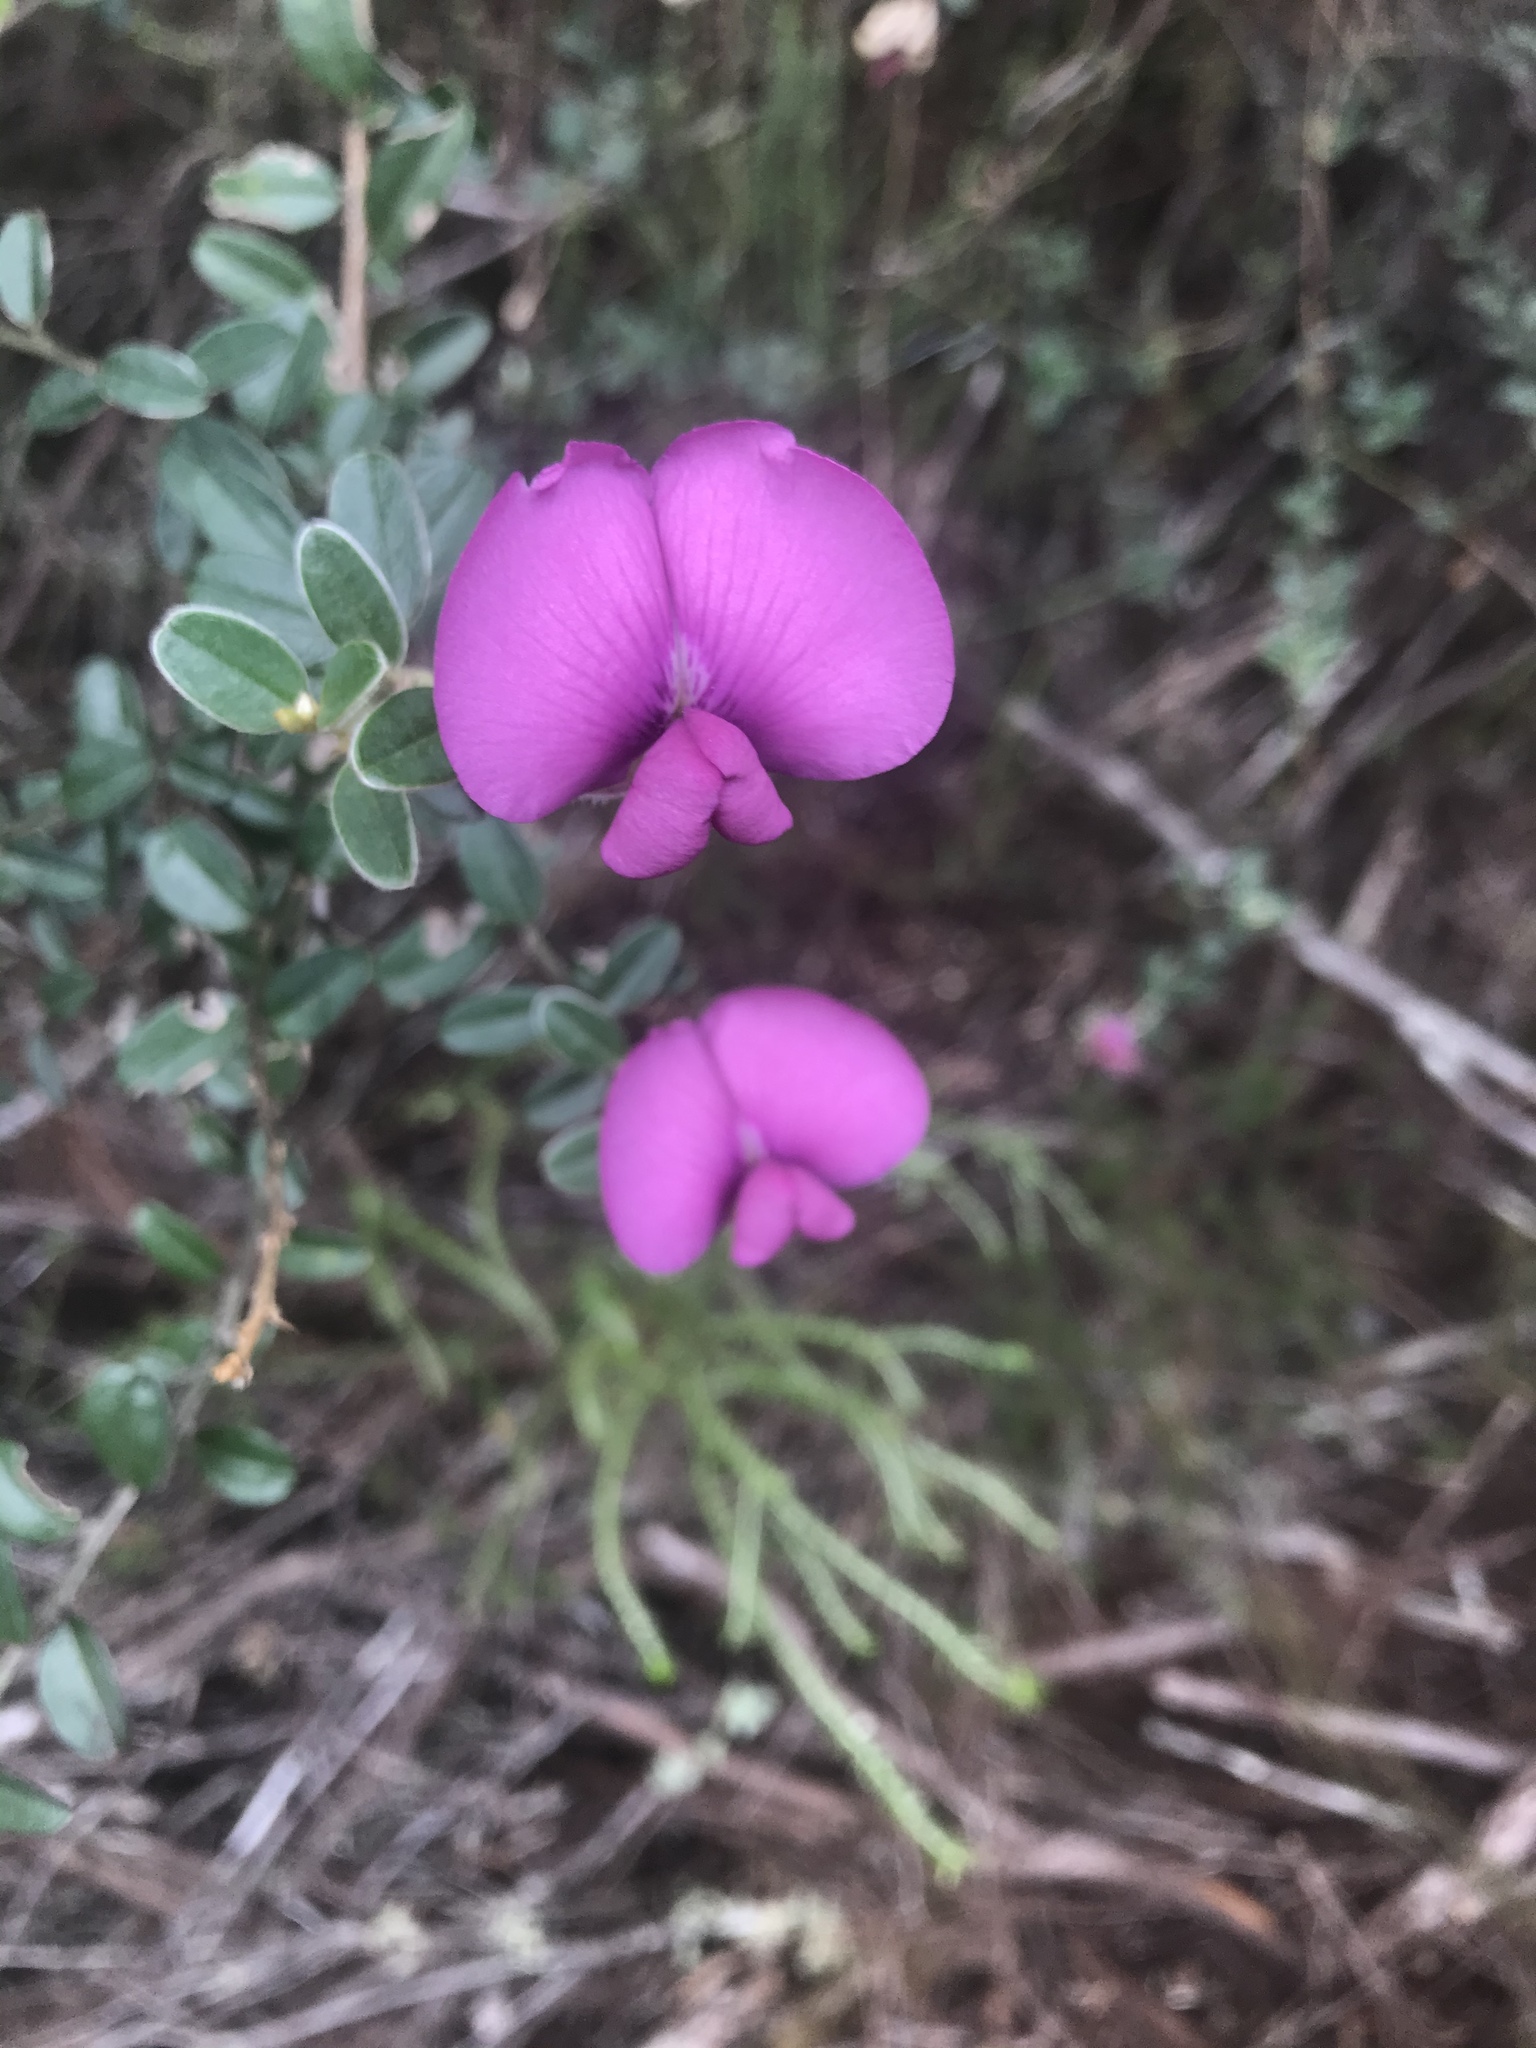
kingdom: Plantae
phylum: Tracheophyta
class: Magnoliopsida
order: Fabales
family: Fabaceae
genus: Podalyria
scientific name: Podalyria buxifolia
